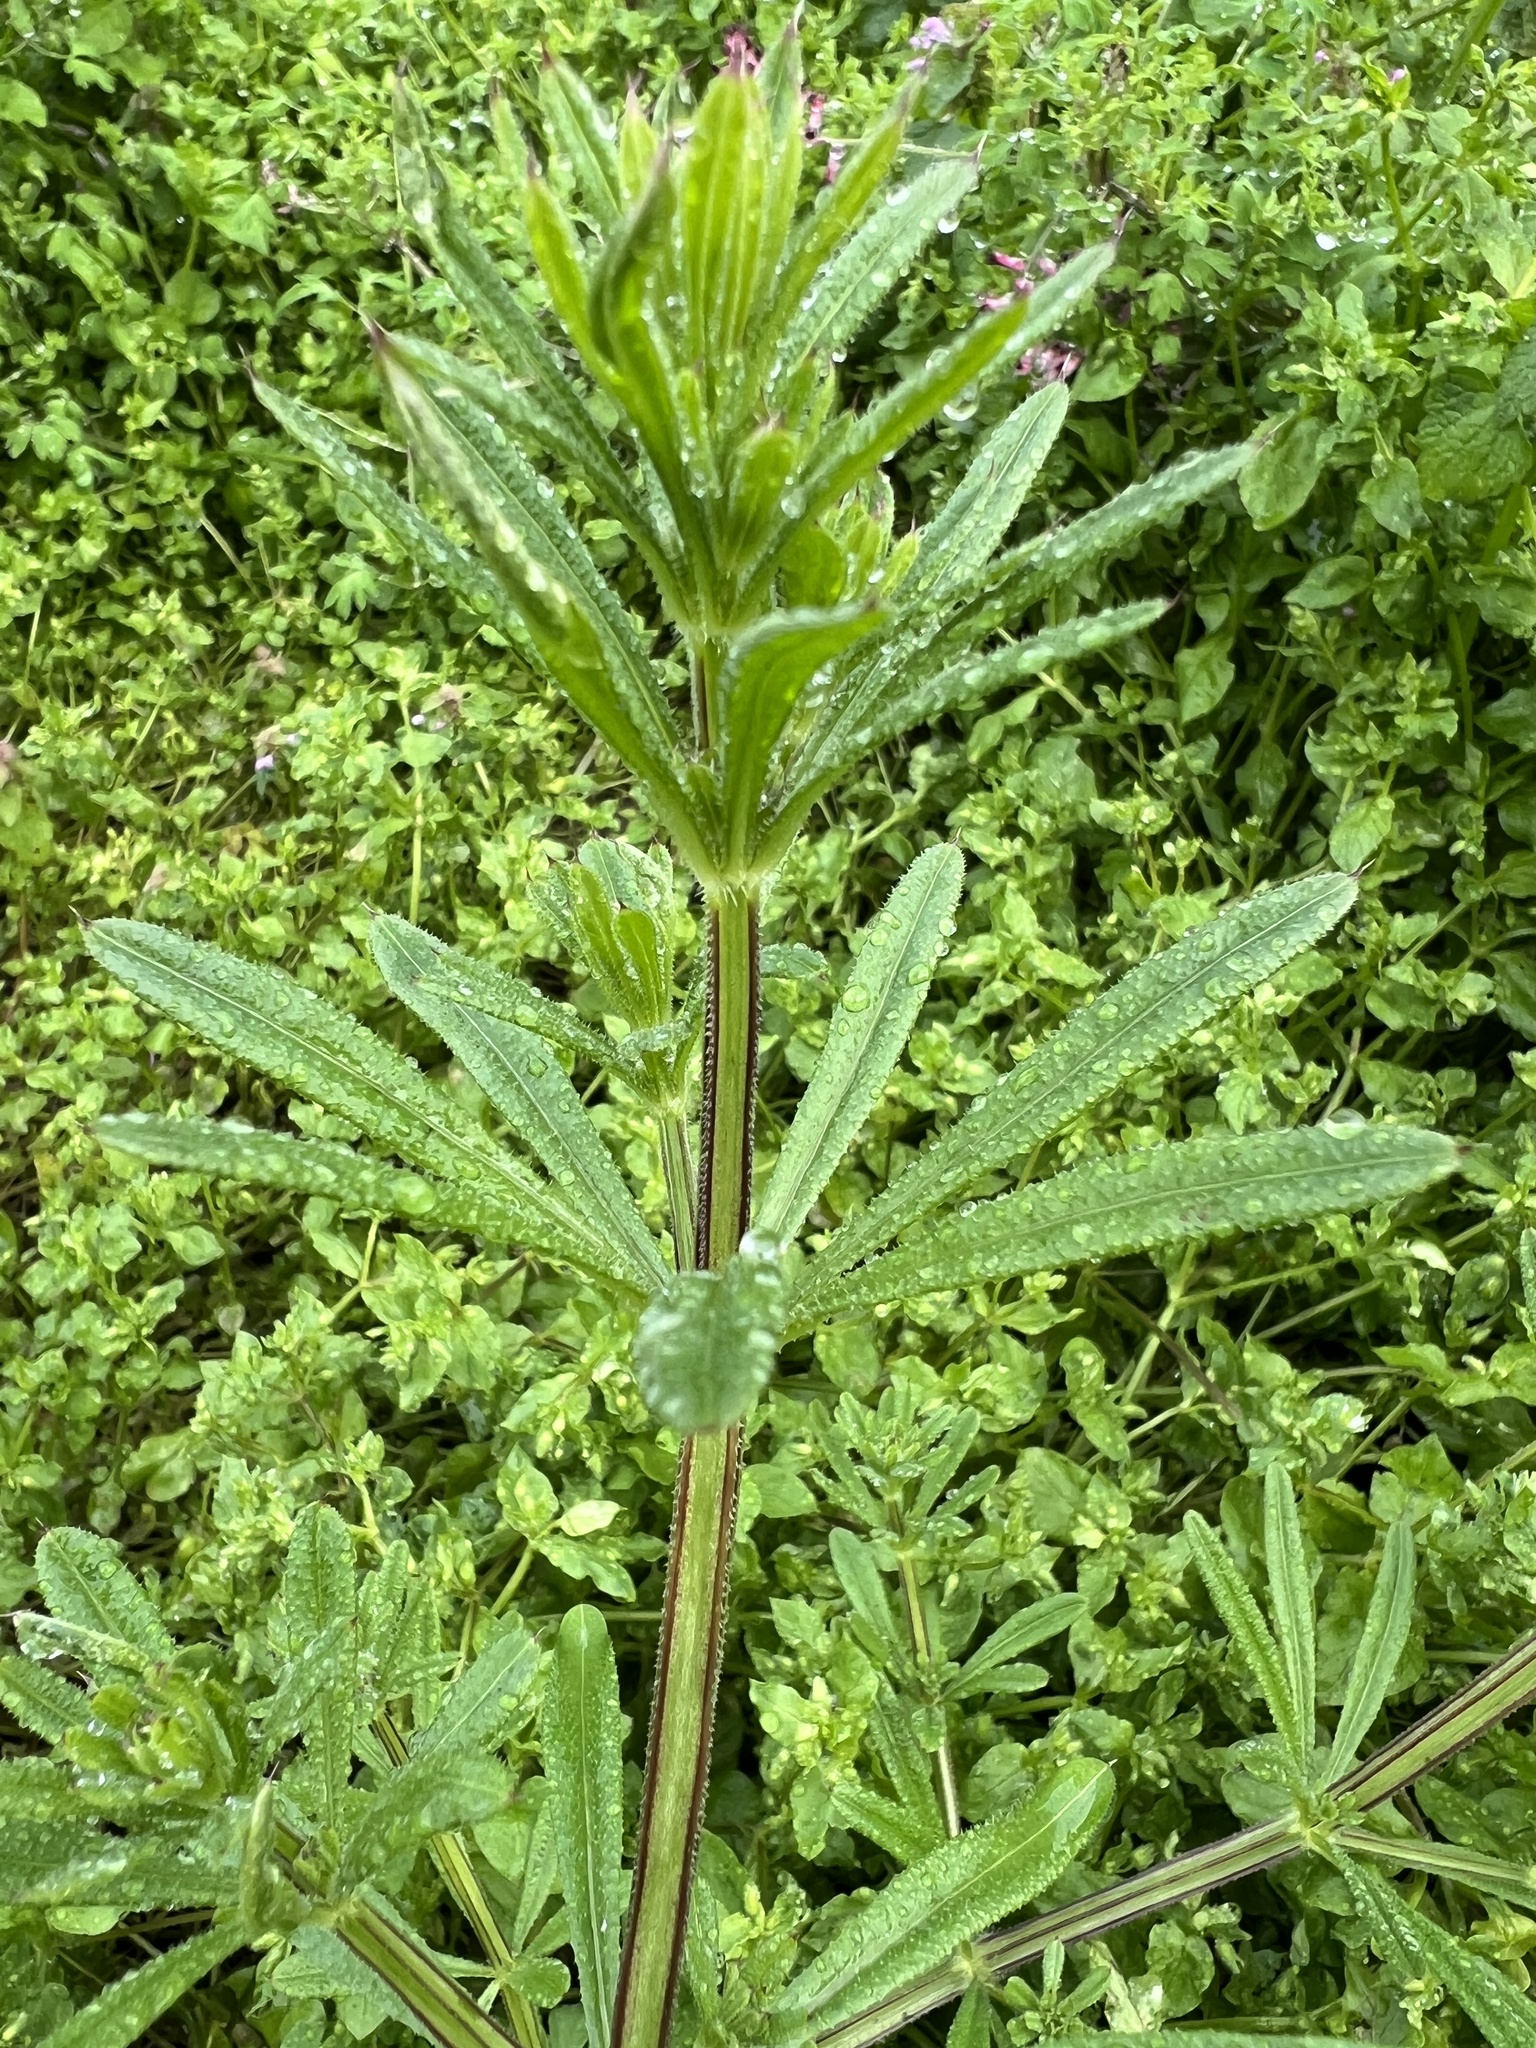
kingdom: Plantae
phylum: Tracheophyta
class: Magnoliopsida
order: Gentianales
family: Rubiaceae
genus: Galium
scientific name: Galium aparine
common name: Cleavers
